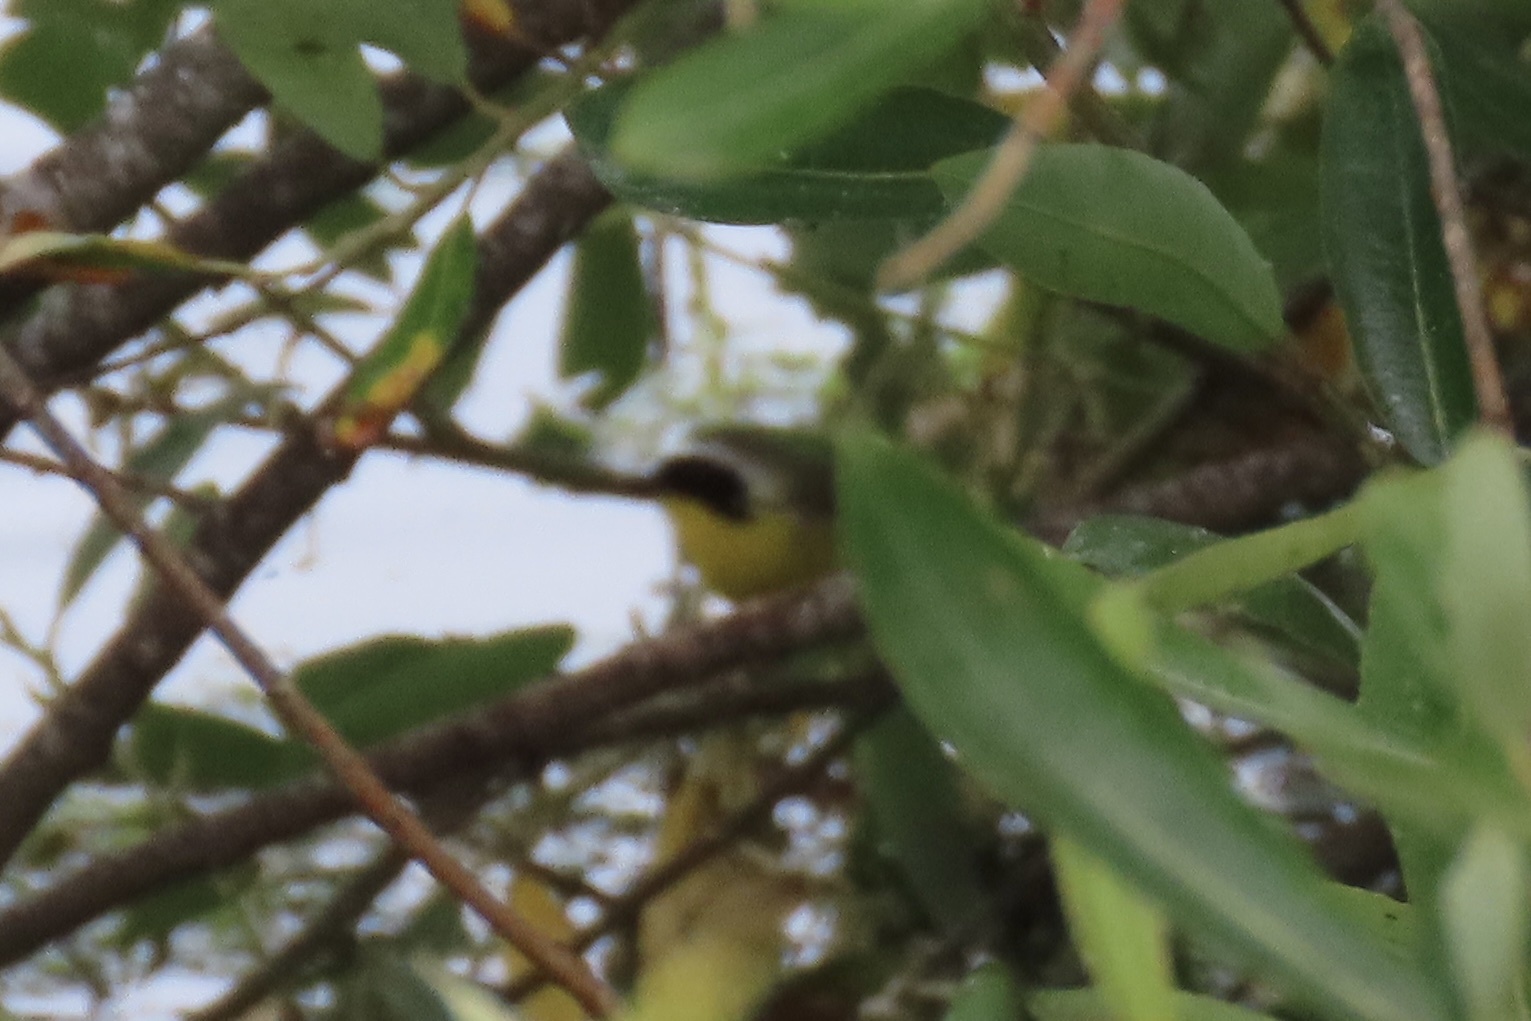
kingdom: Animalia
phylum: Chordata
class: Aves
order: Passeriformes
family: Parulidae
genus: Geothlypis
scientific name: Geothlypis trichas
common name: Common yellowthroat
